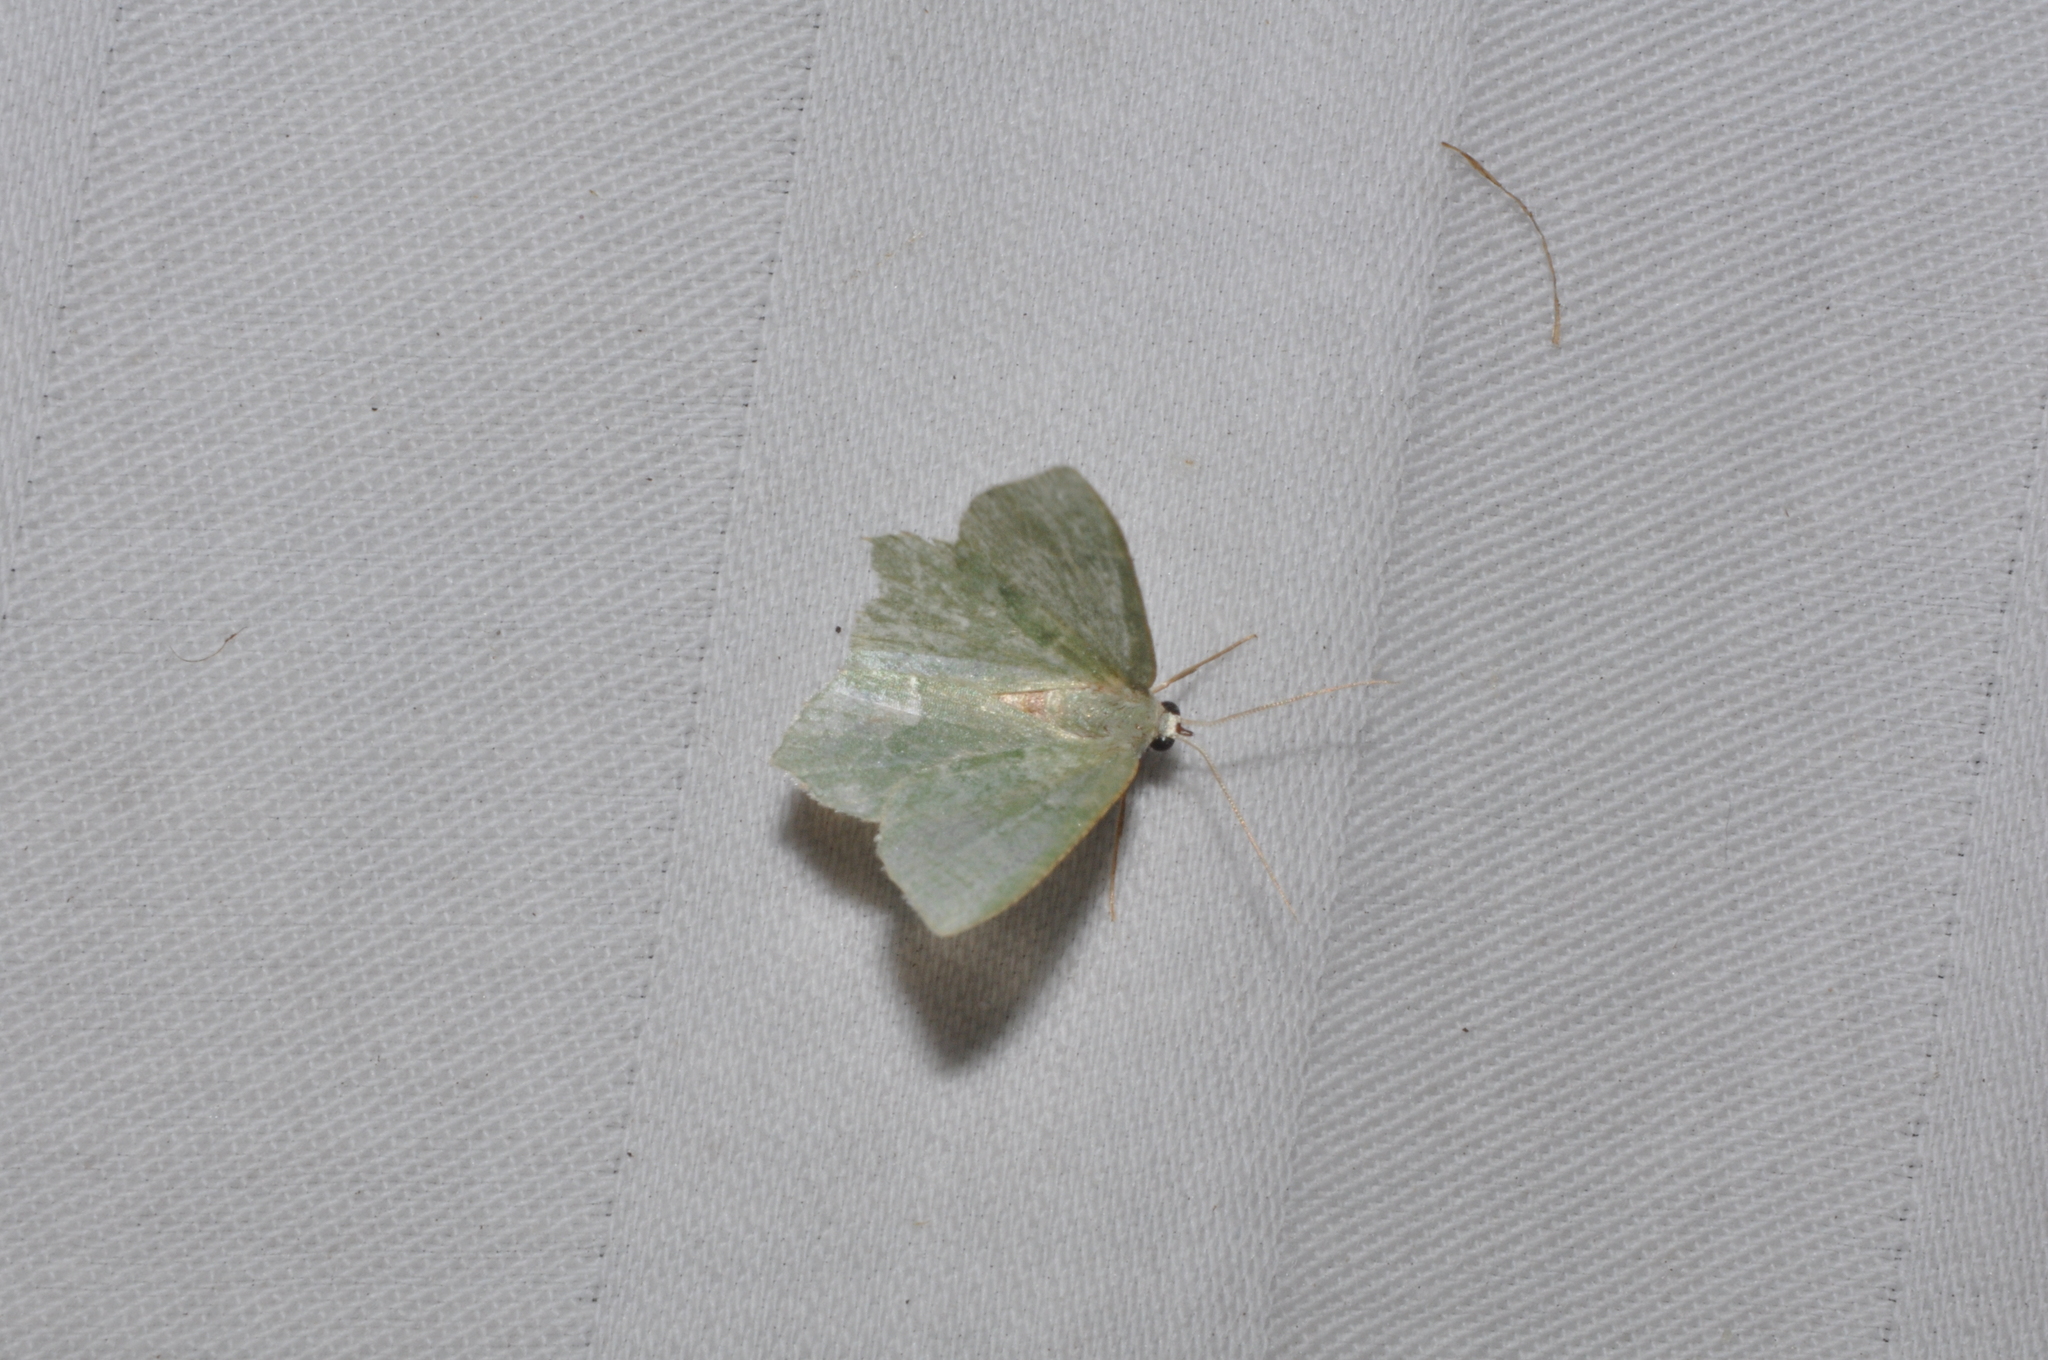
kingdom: Animalia
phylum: Arthropoda
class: Insecta
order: Lepidoptera
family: Geometridae
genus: Hemithea
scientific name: Hemithea aestivaria
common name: Common emerald
